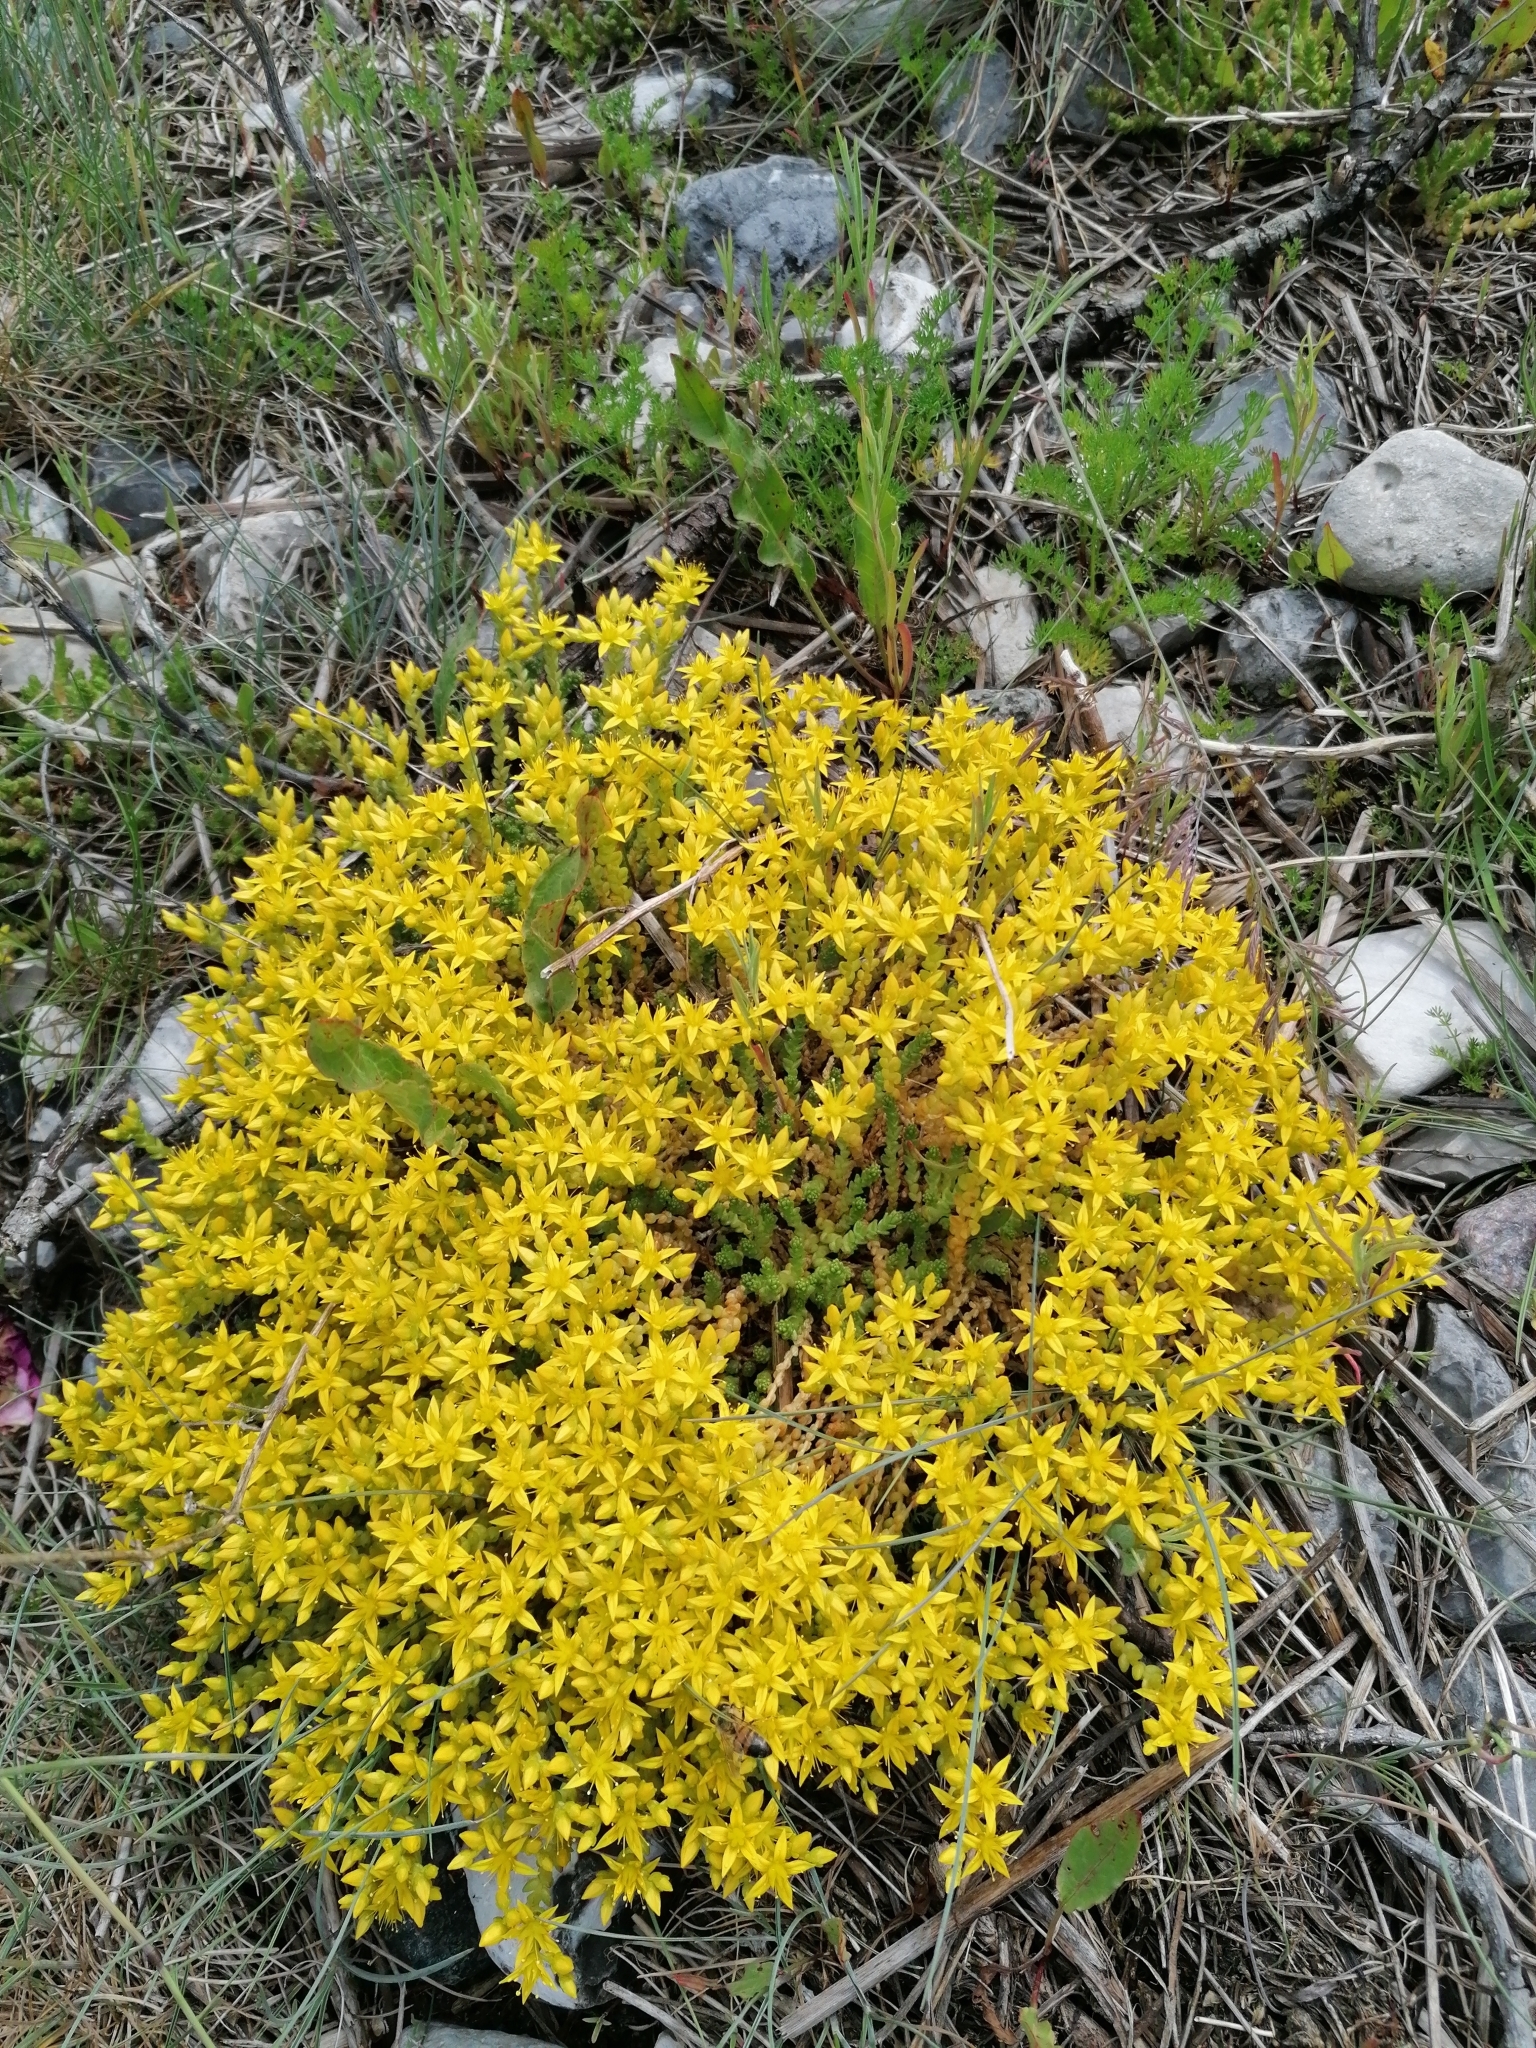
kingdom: Plantae
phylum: Tracheophyta
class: Magnoliopsida
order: Saxifragales
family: Crassulaceae
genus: Sedum
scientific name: Sedum acre
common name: Biting stonecrop
